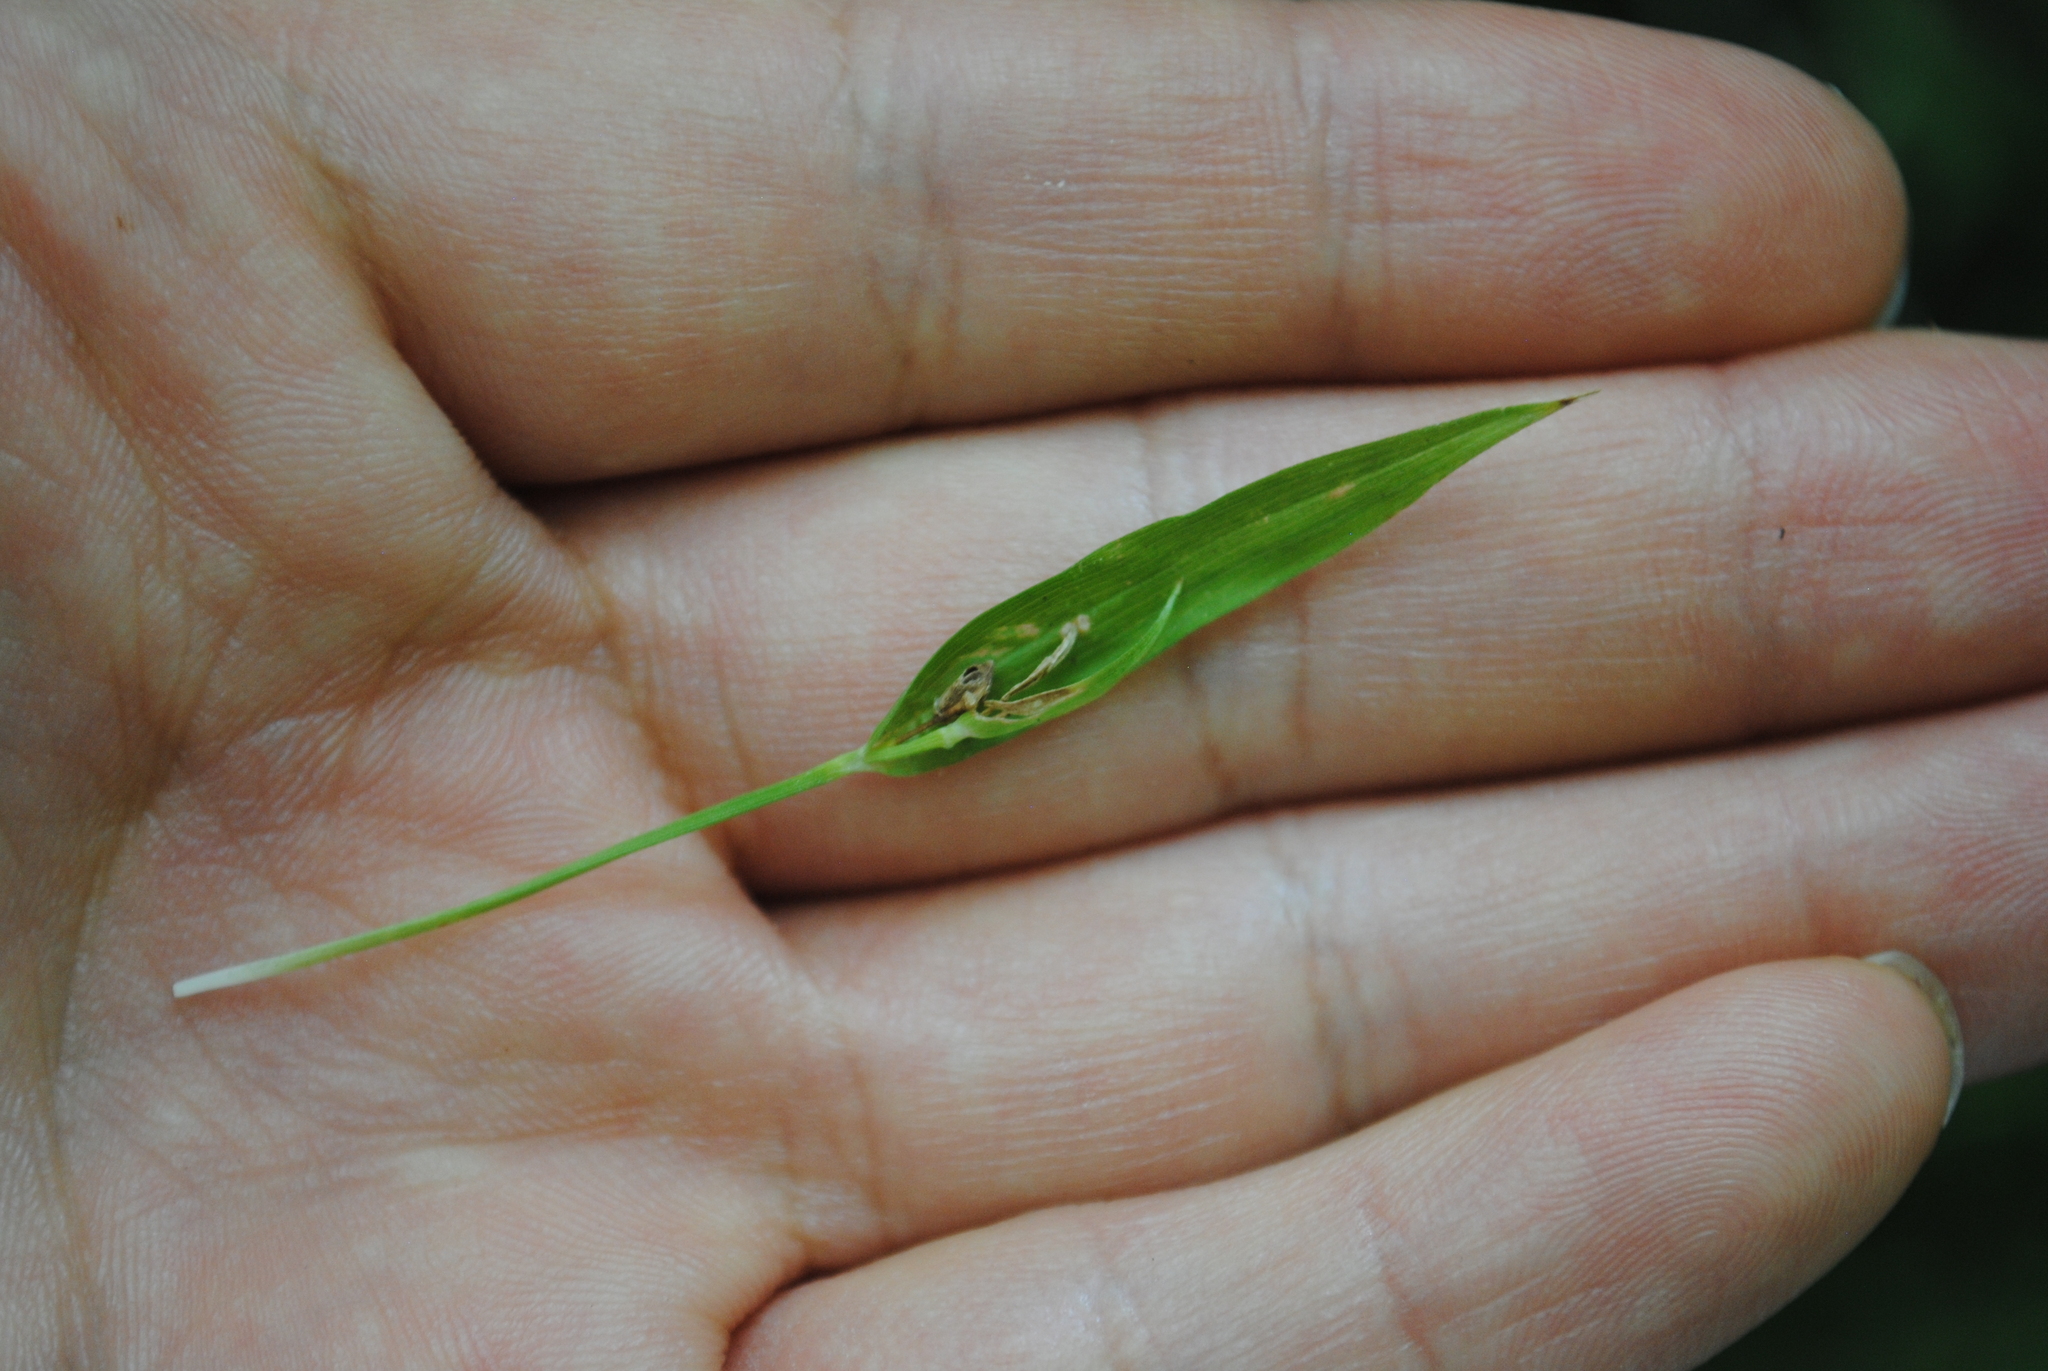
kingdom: Plantae
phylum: Tracheophyta
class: Liliopsida
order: Poales
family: Cyperaceae
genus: Carex
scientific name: Carex abscondita
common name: Thicket sedge
